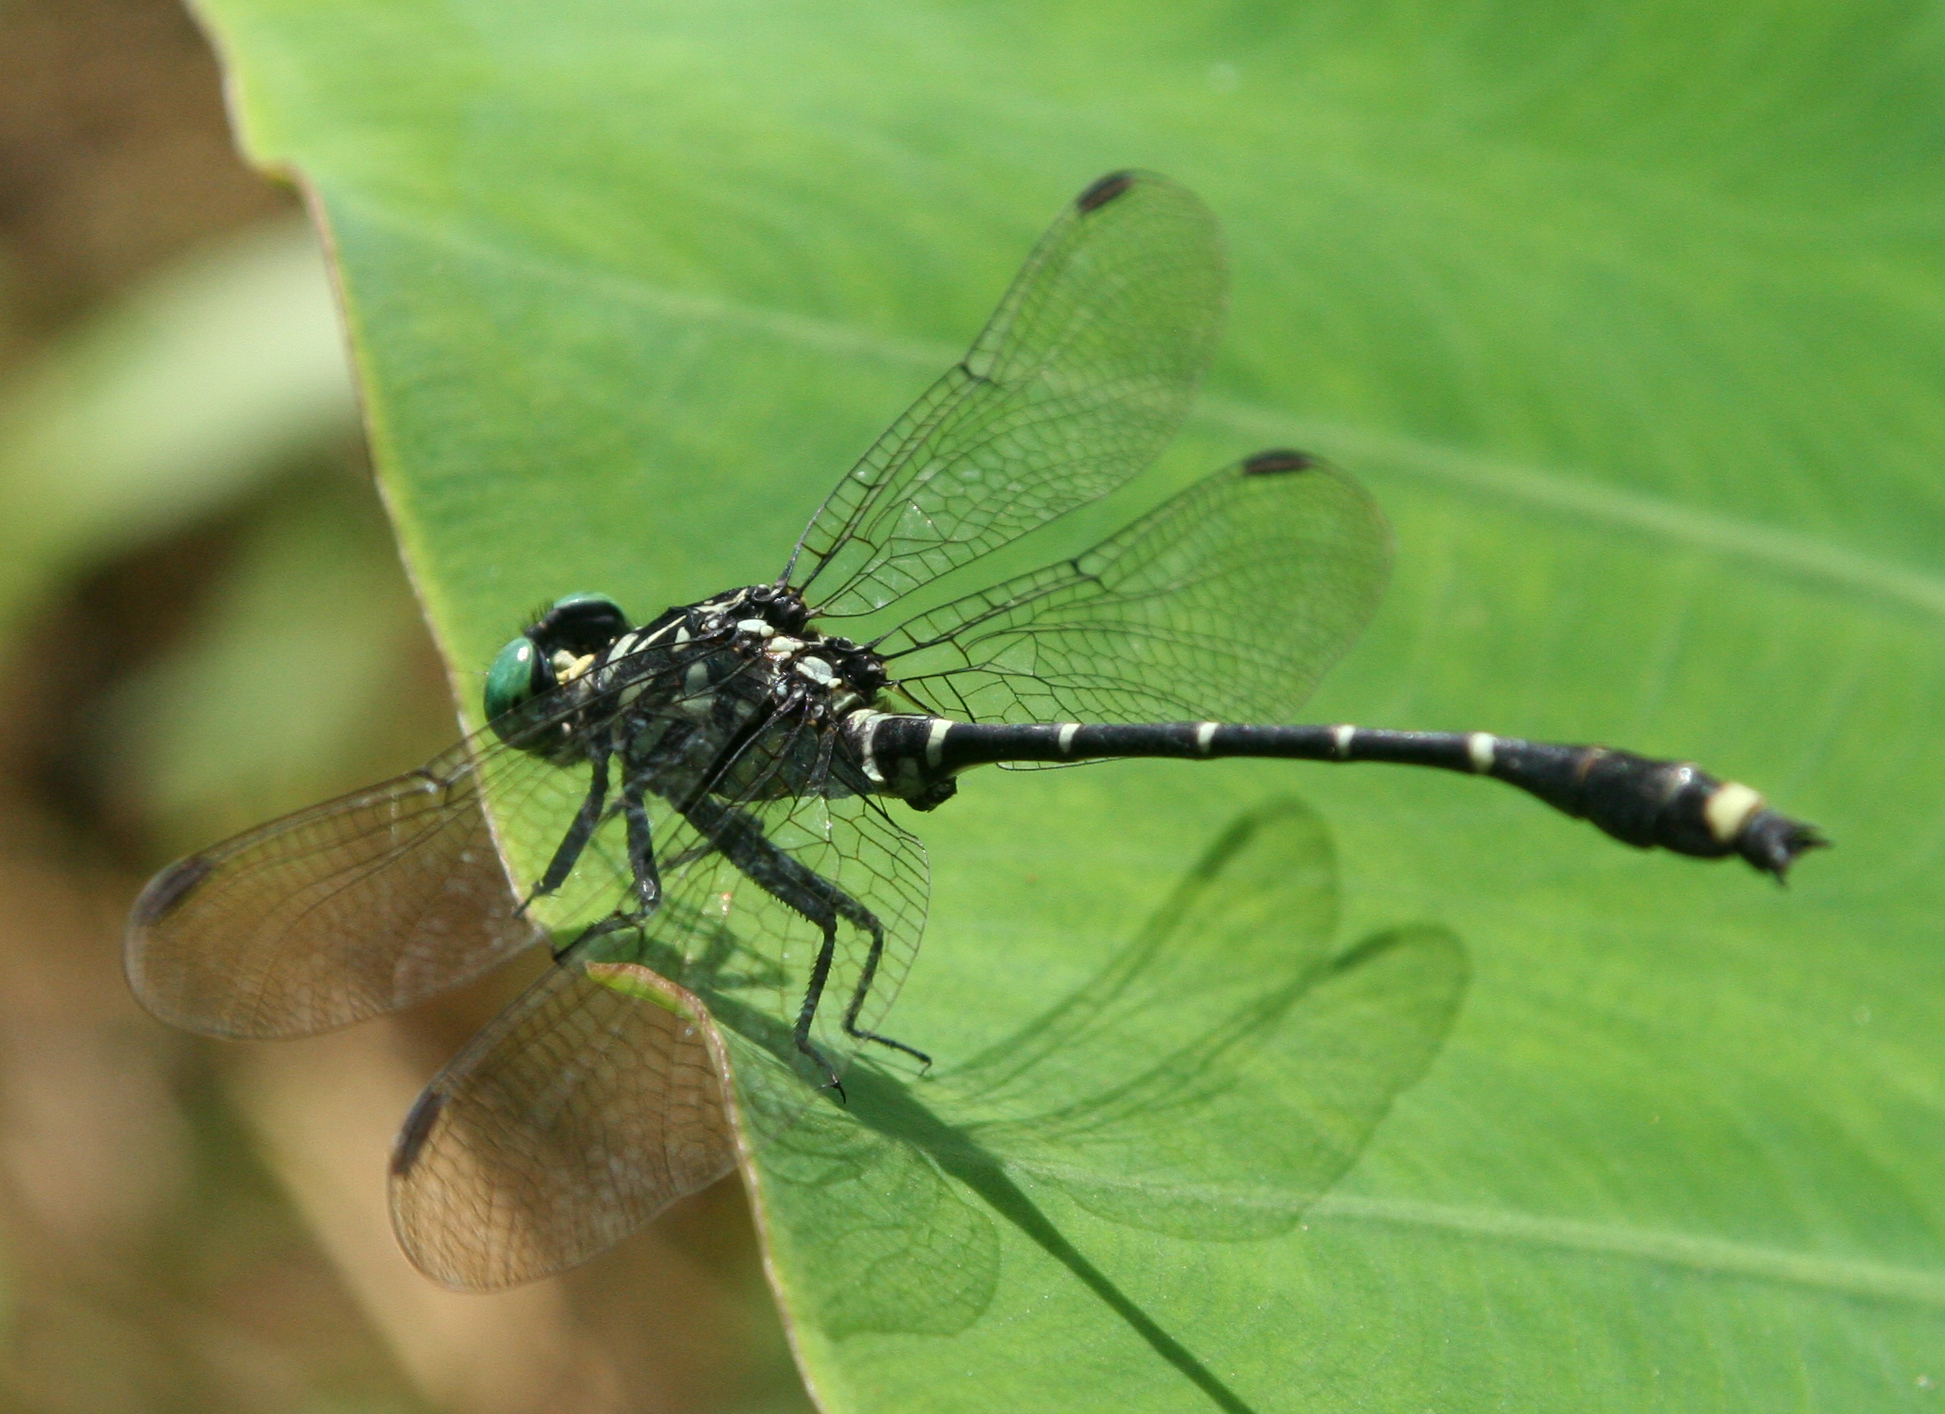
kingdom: Animalia
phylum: Arthropoda
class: Insecta
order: Odonata
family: Gomphidae
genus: Burmagomphus
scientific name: Burmagomphus asahinai
